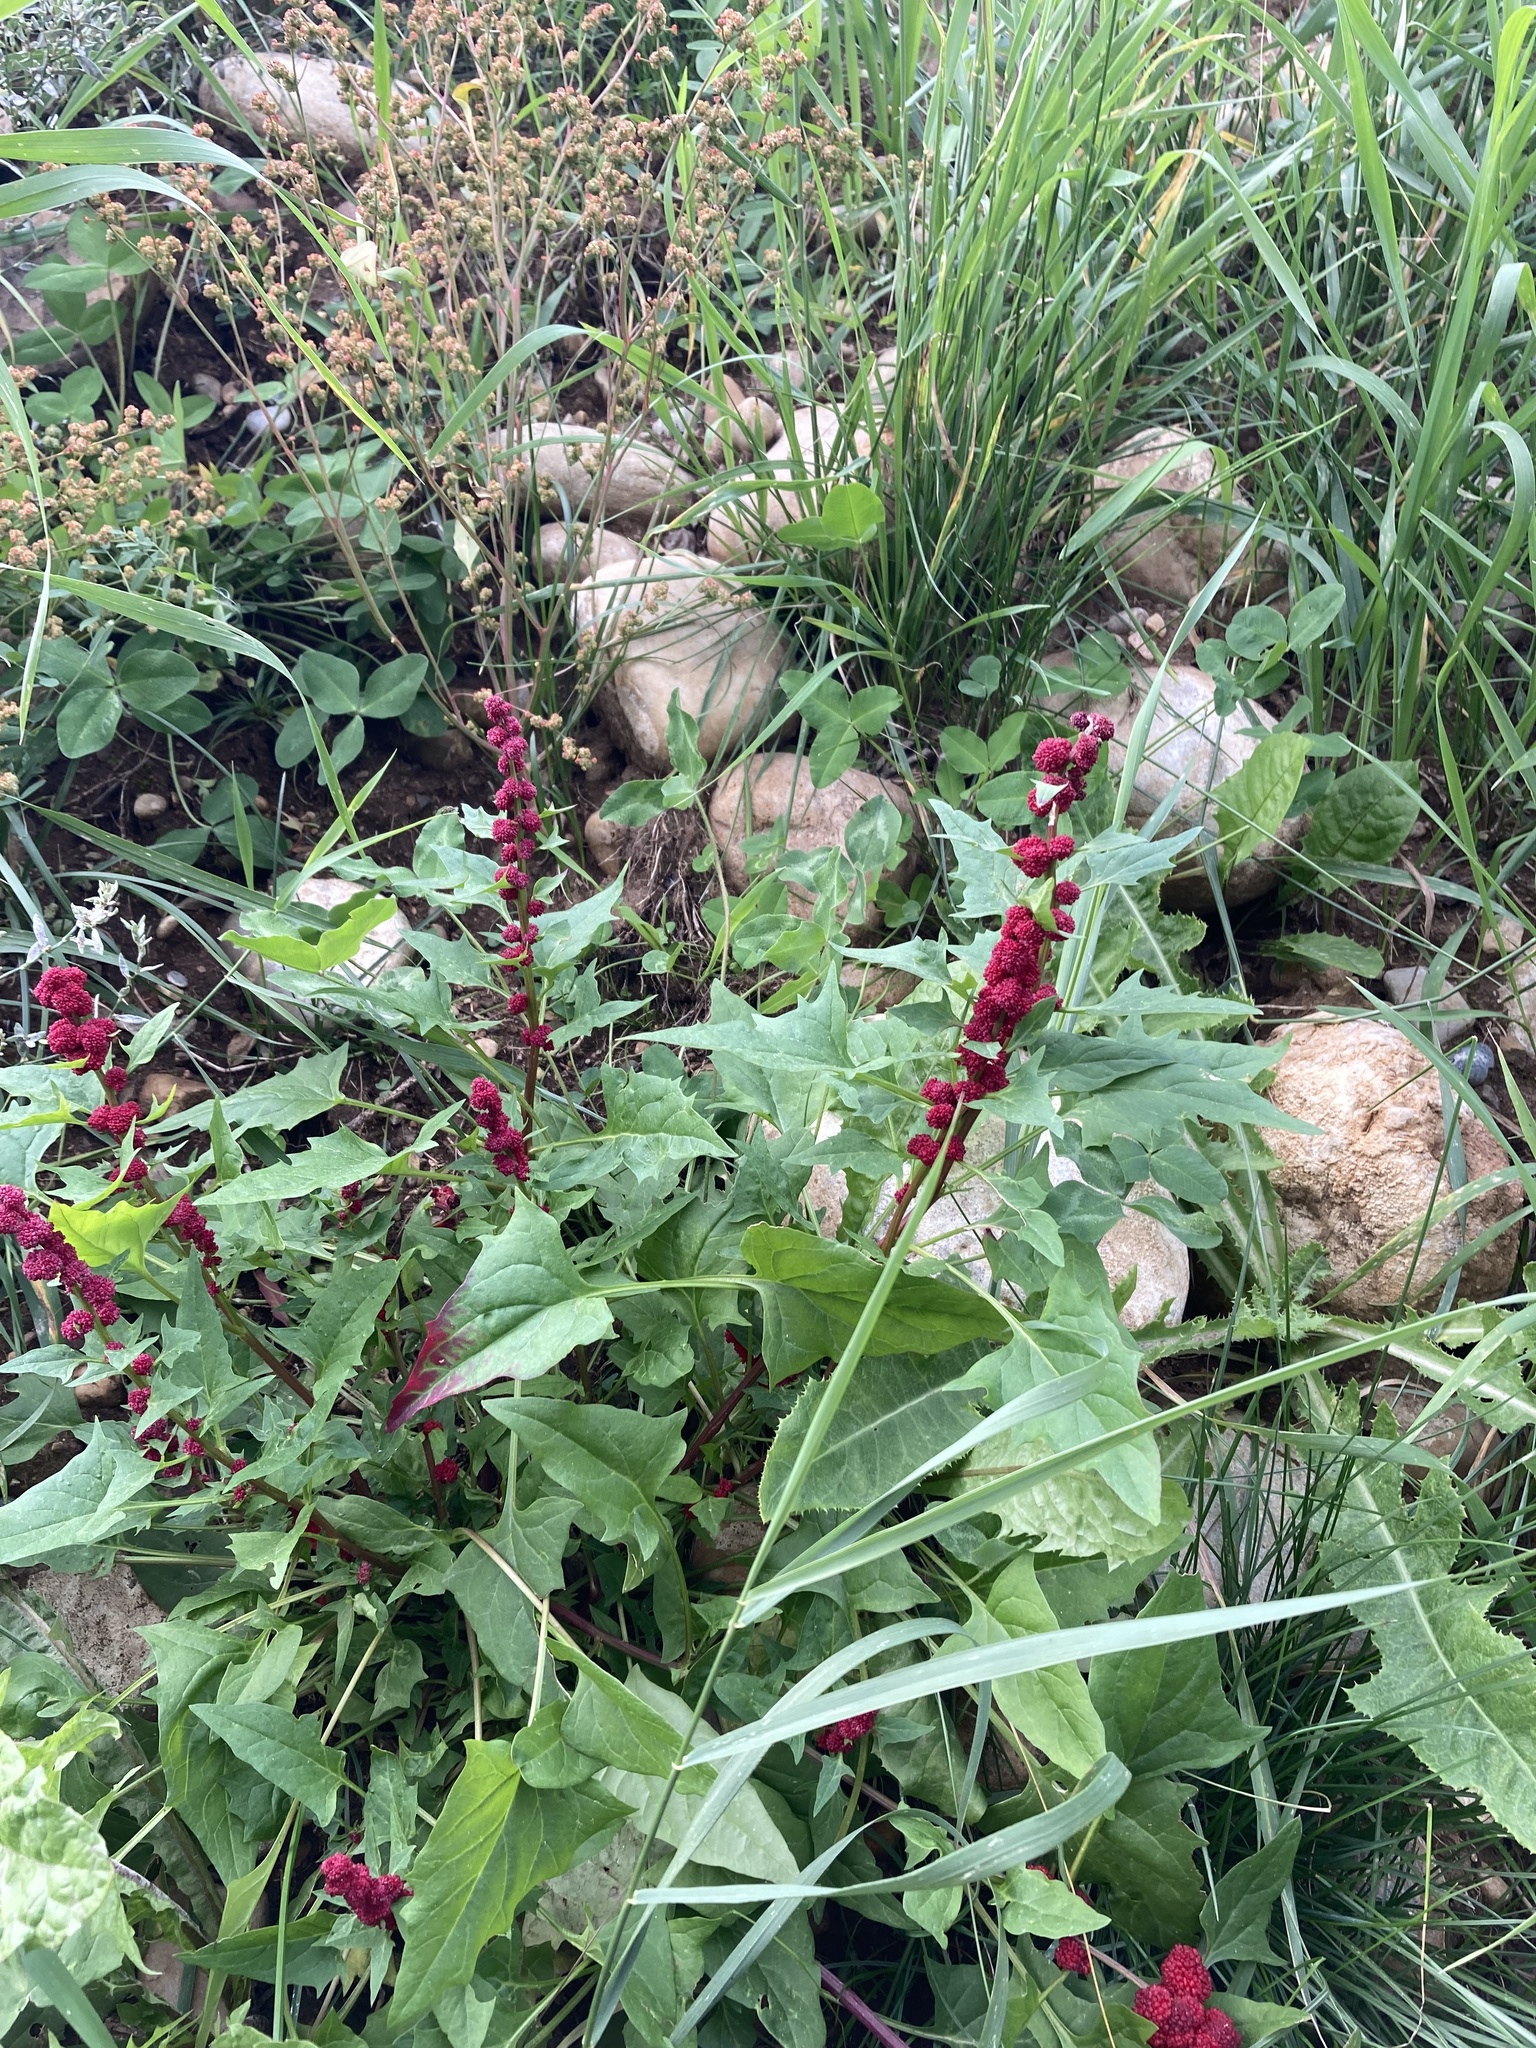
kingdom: Plantae
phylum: Tracheophyta
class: Magnoliopsida
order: Caryophyllales
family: Amaranthaceae
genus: Blitum
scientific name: Blitum capitatum
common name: Strawberry-blight
